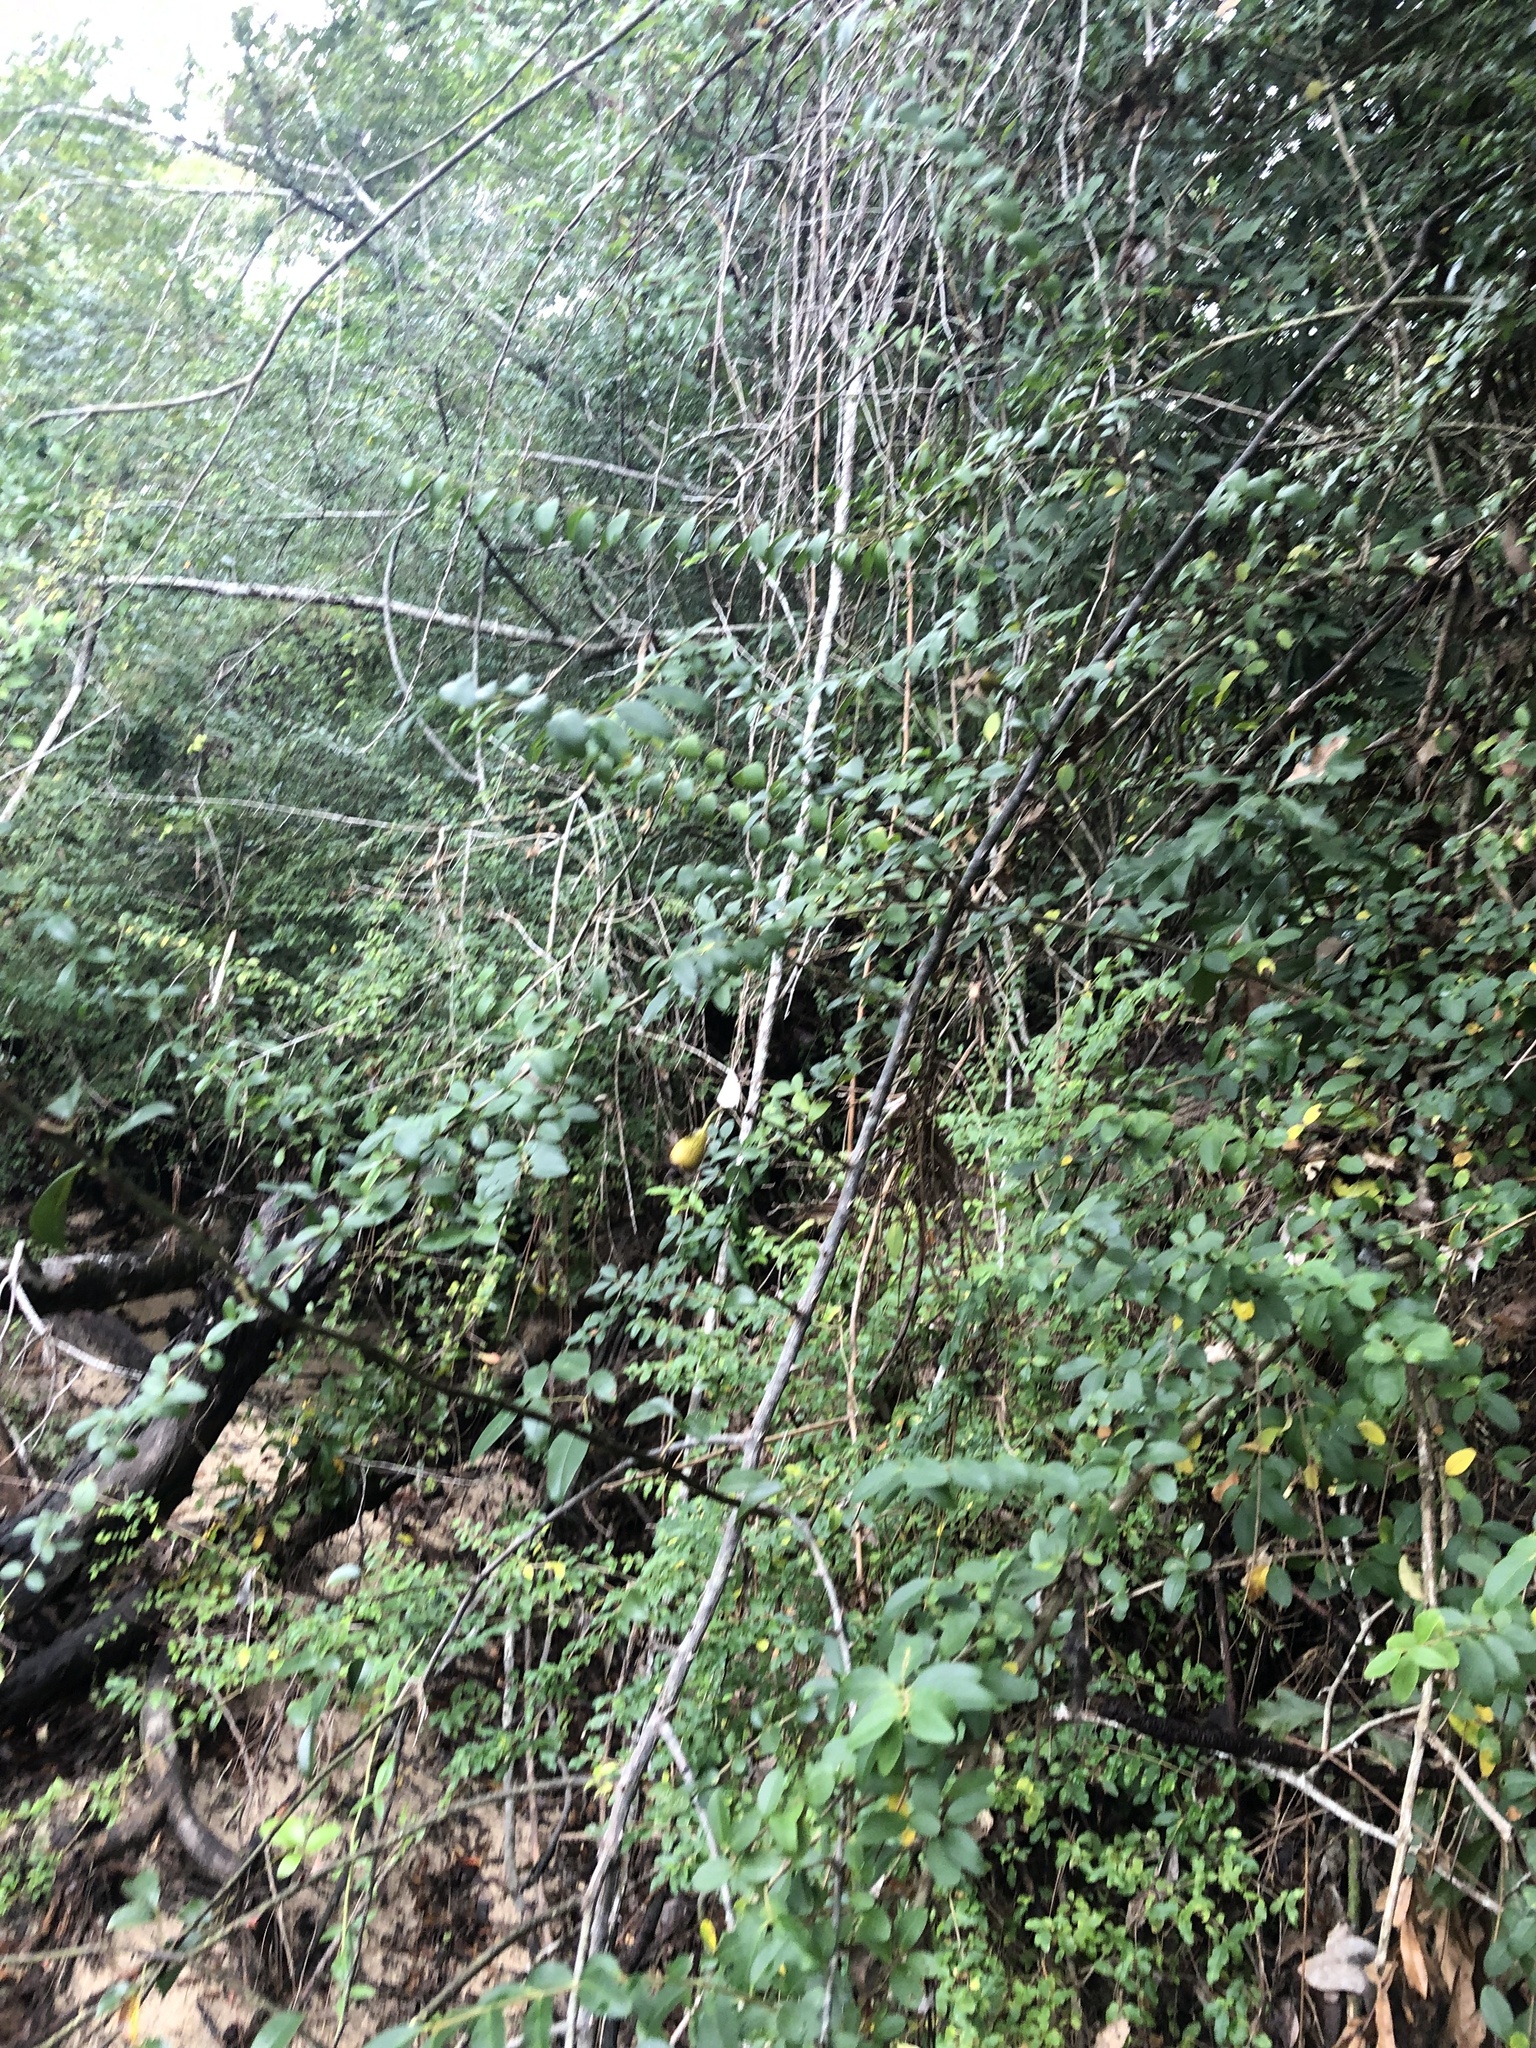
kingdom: Plantae
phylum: Tracheophyta
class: Magnoliopsida
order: Rosales
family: Rosaceae
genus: Rosa
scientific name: Rosa laevigata
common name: Cherokee rose
